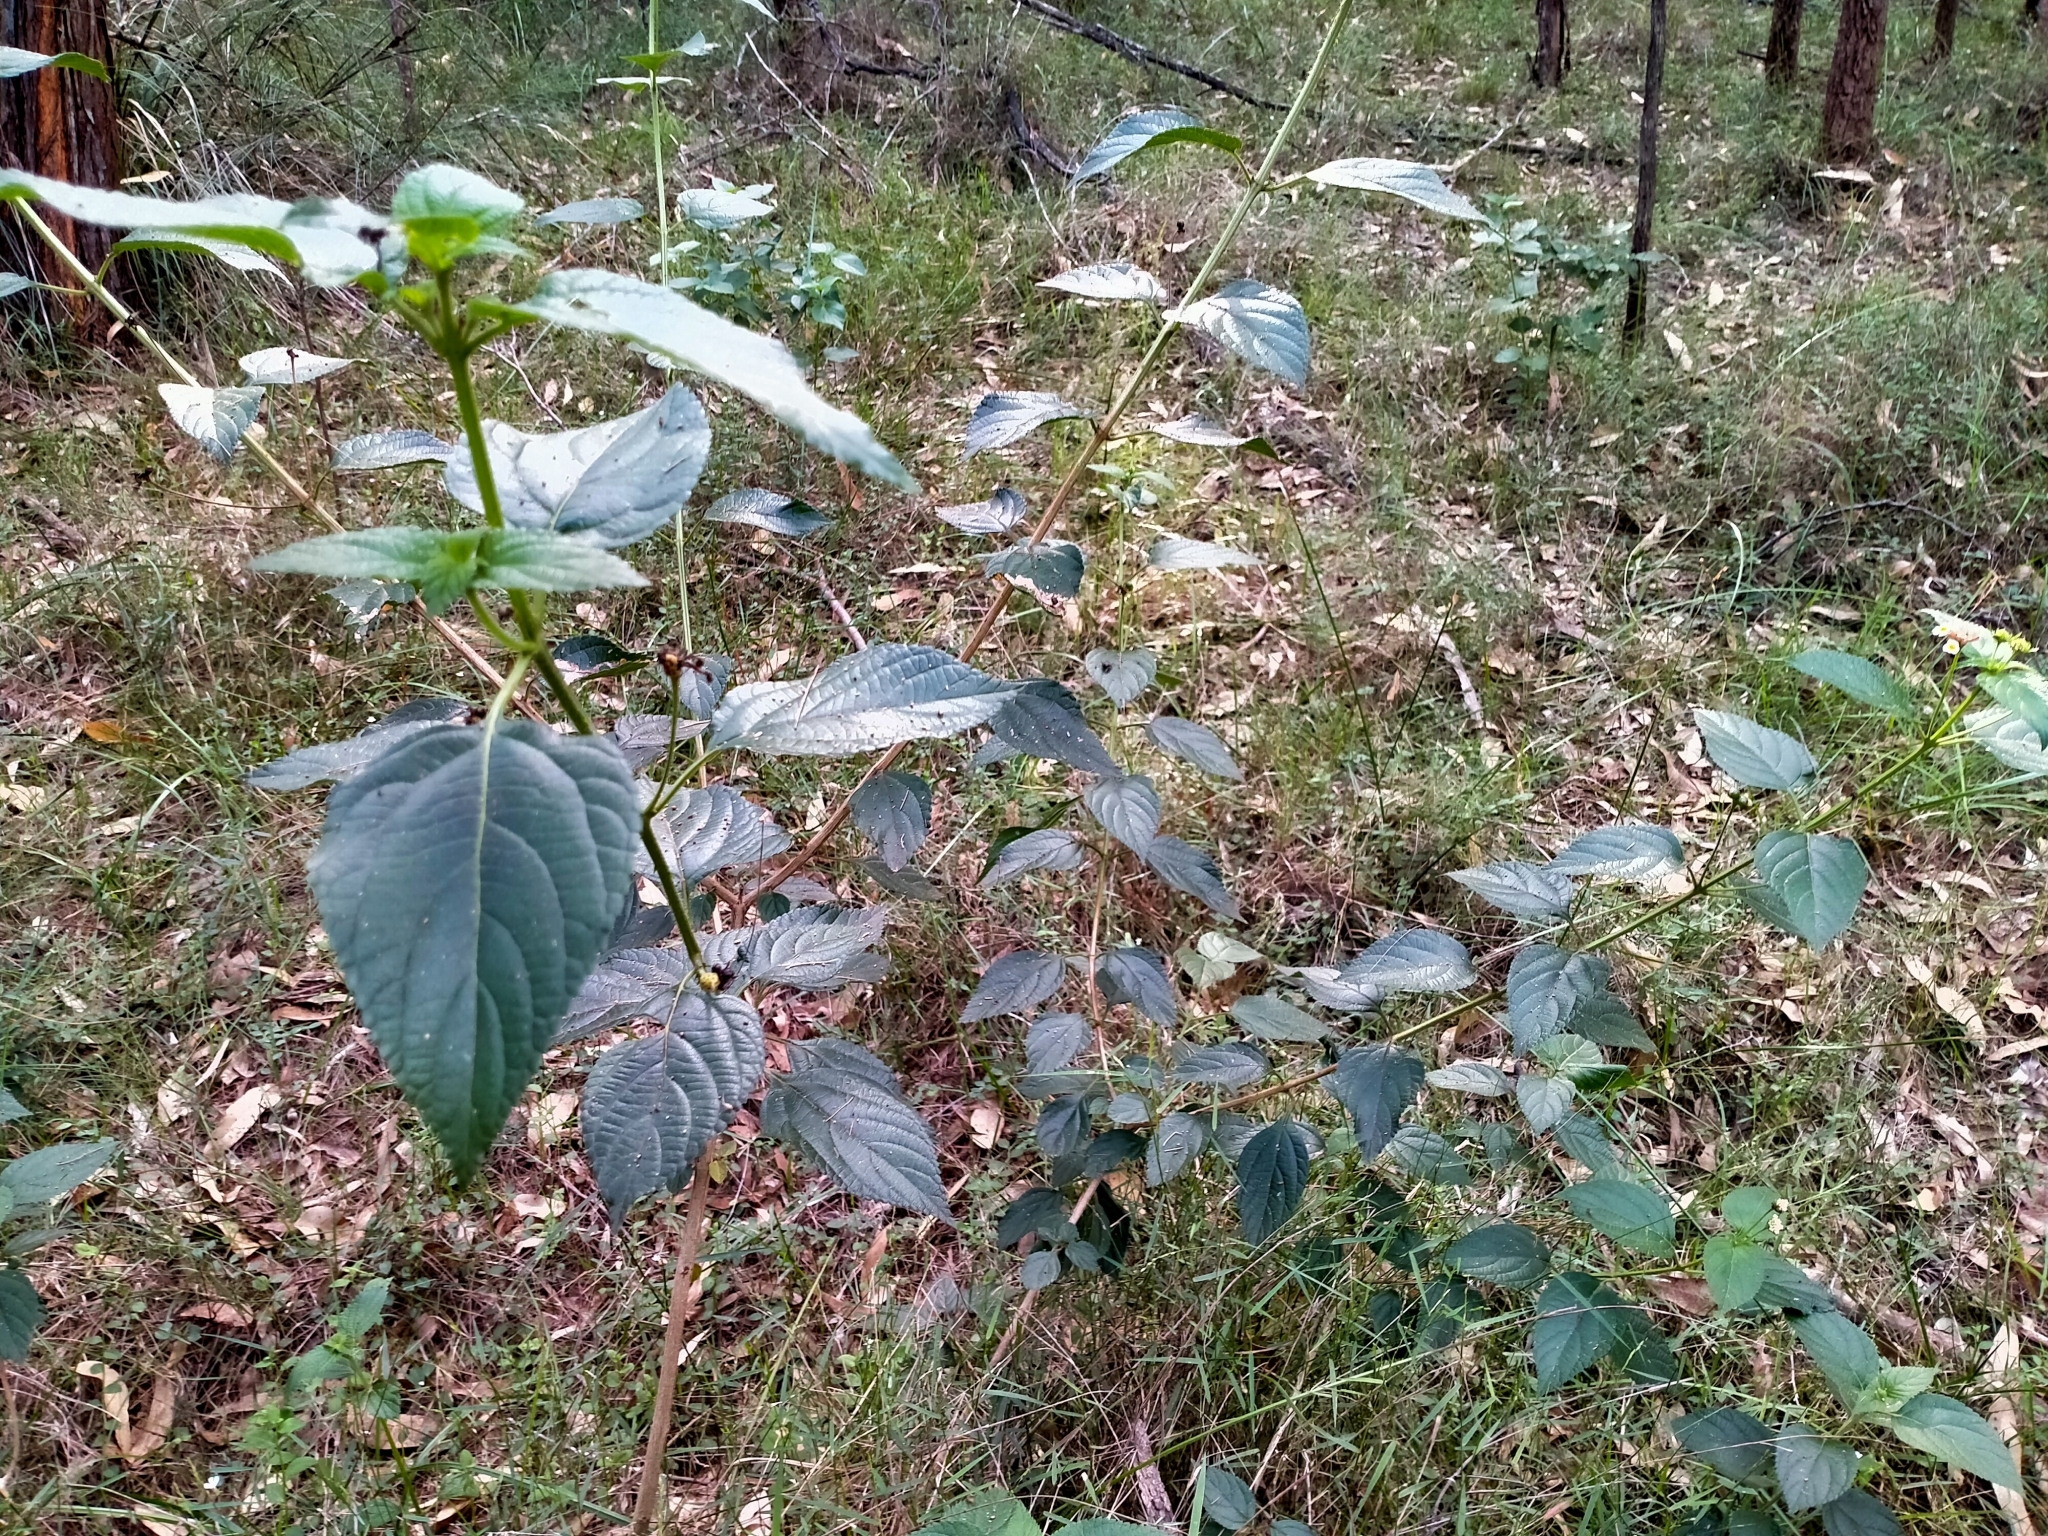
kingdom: Plantae
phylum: Tracheophyta
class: Magnoliopsida
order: Lamiales
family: Verbenaceae
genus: Lantana
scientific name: Lantana camara
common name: Lantana
